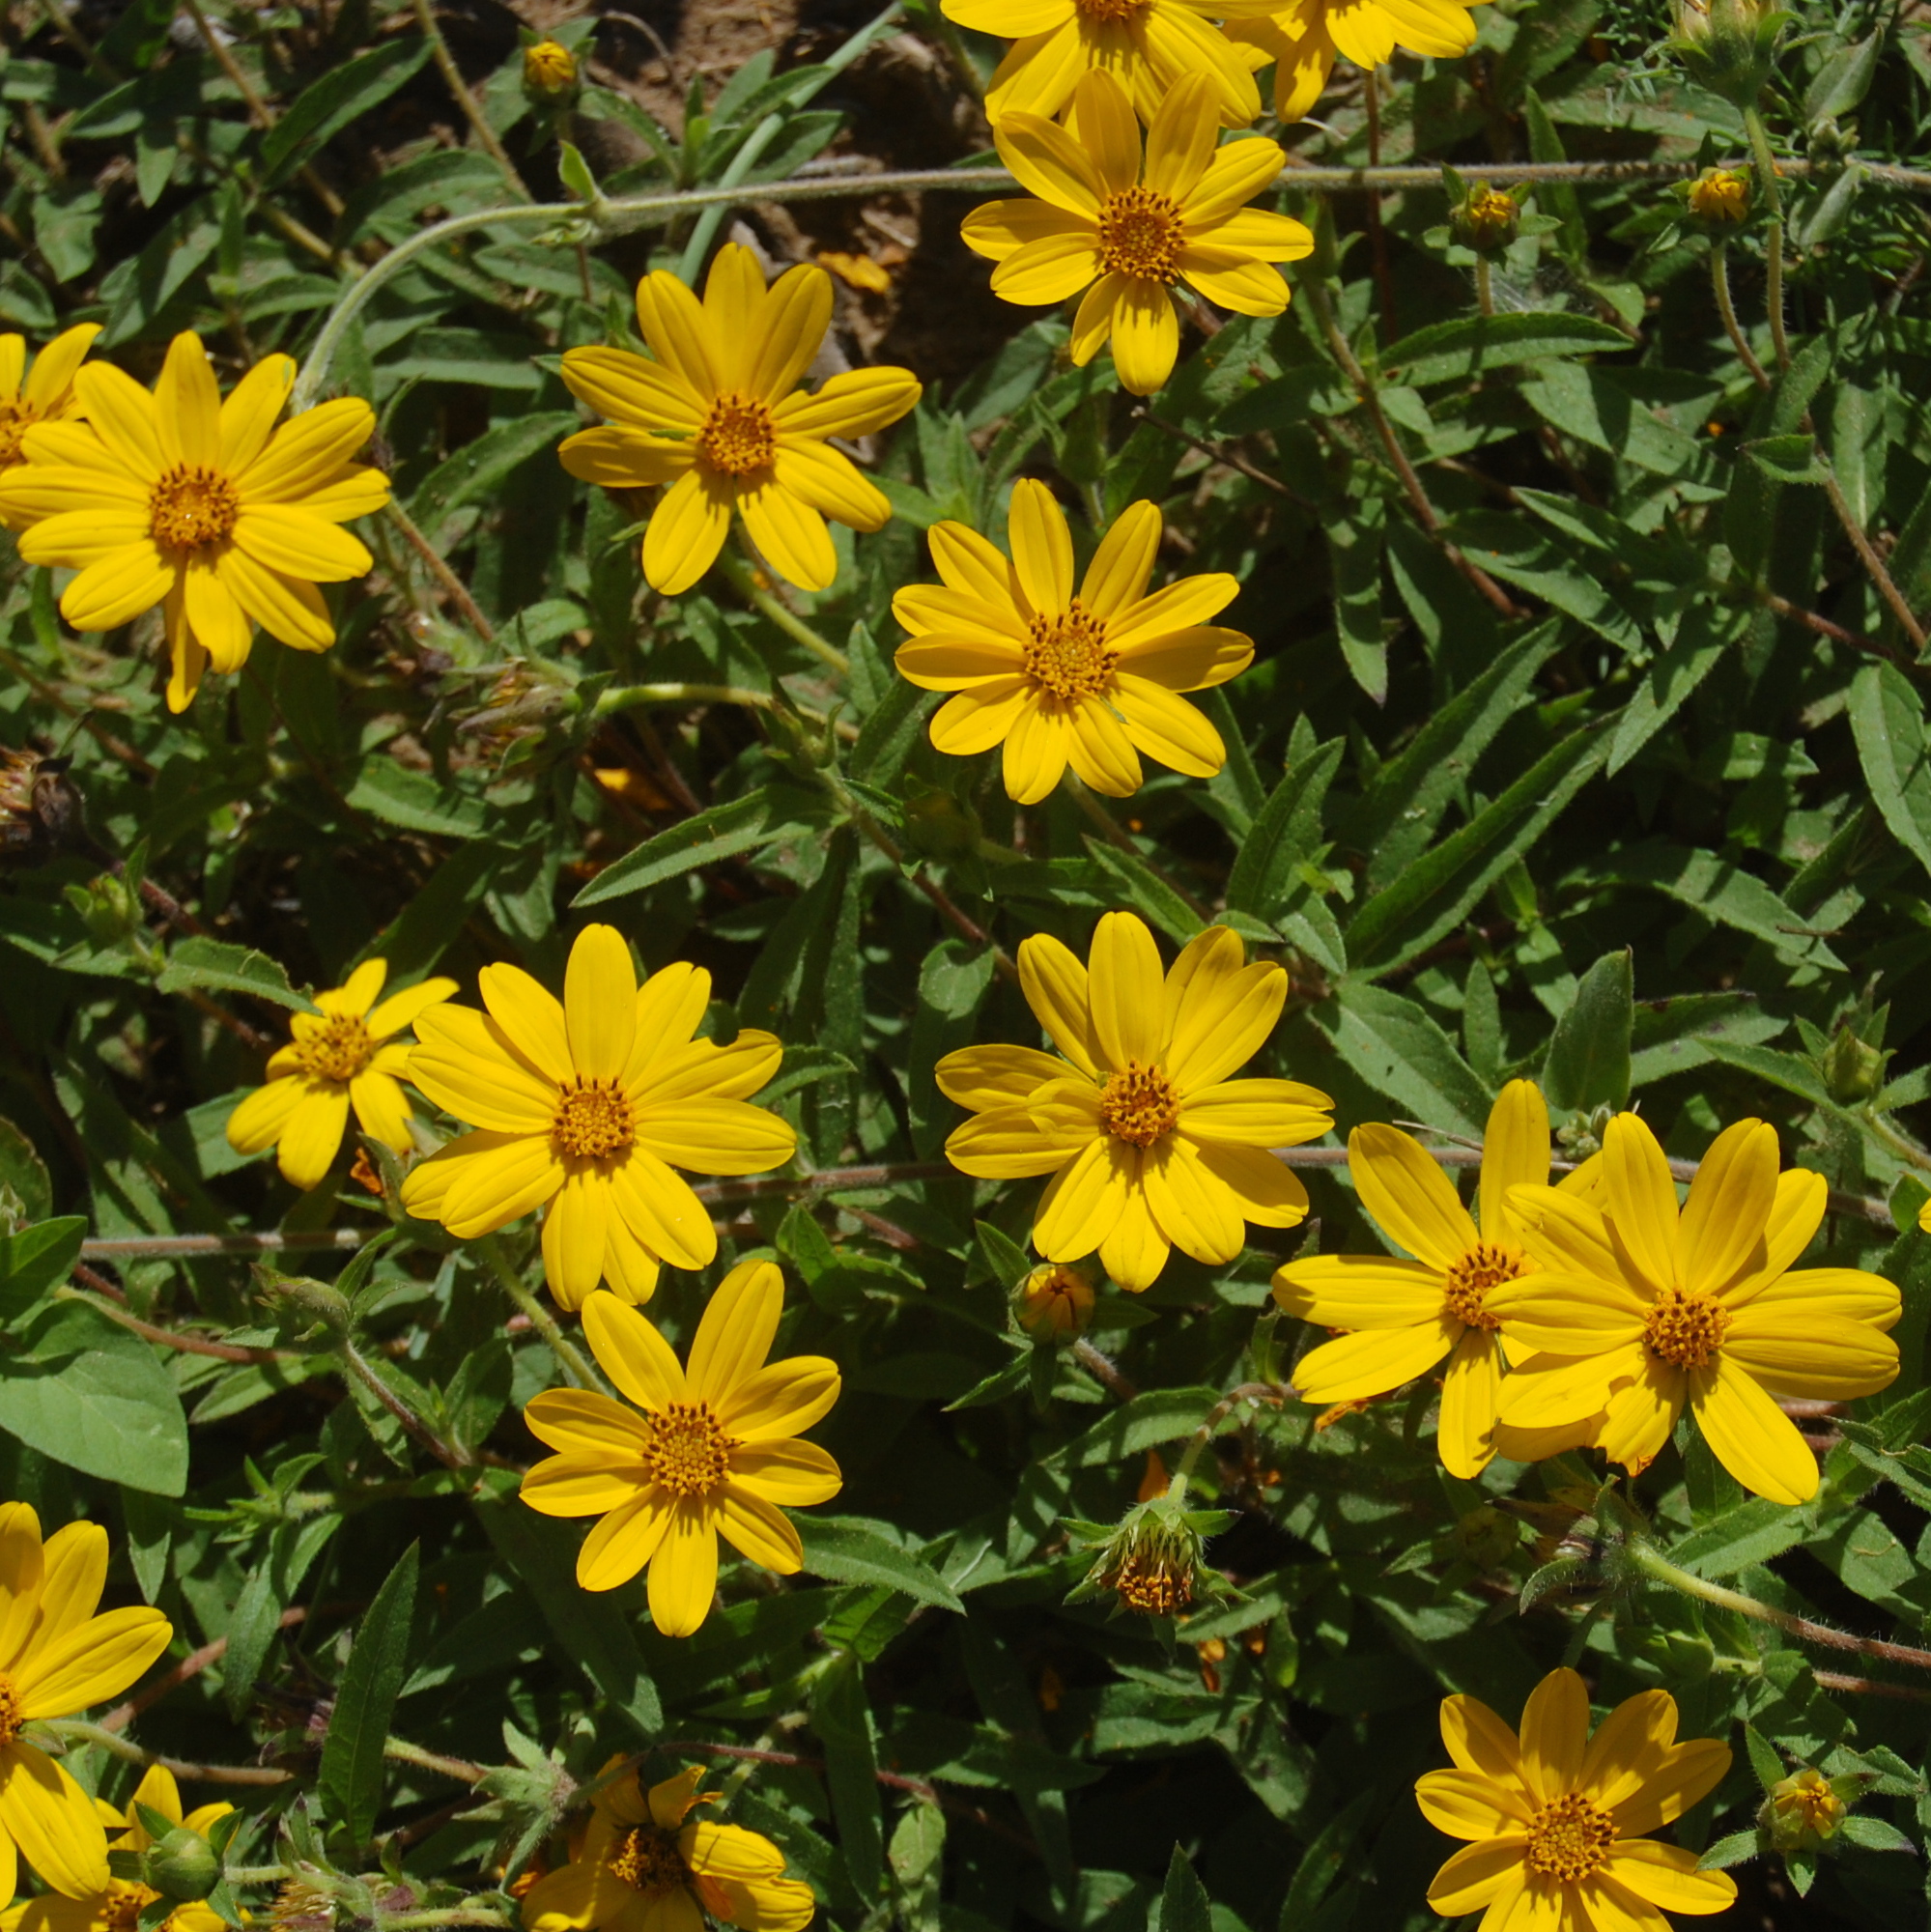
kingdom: Plantae
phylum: Tracheophyta
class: Magnoliopsida
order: Asterales
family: Asteraceae
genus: Wedelia
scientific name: Wedelia montevidensis
